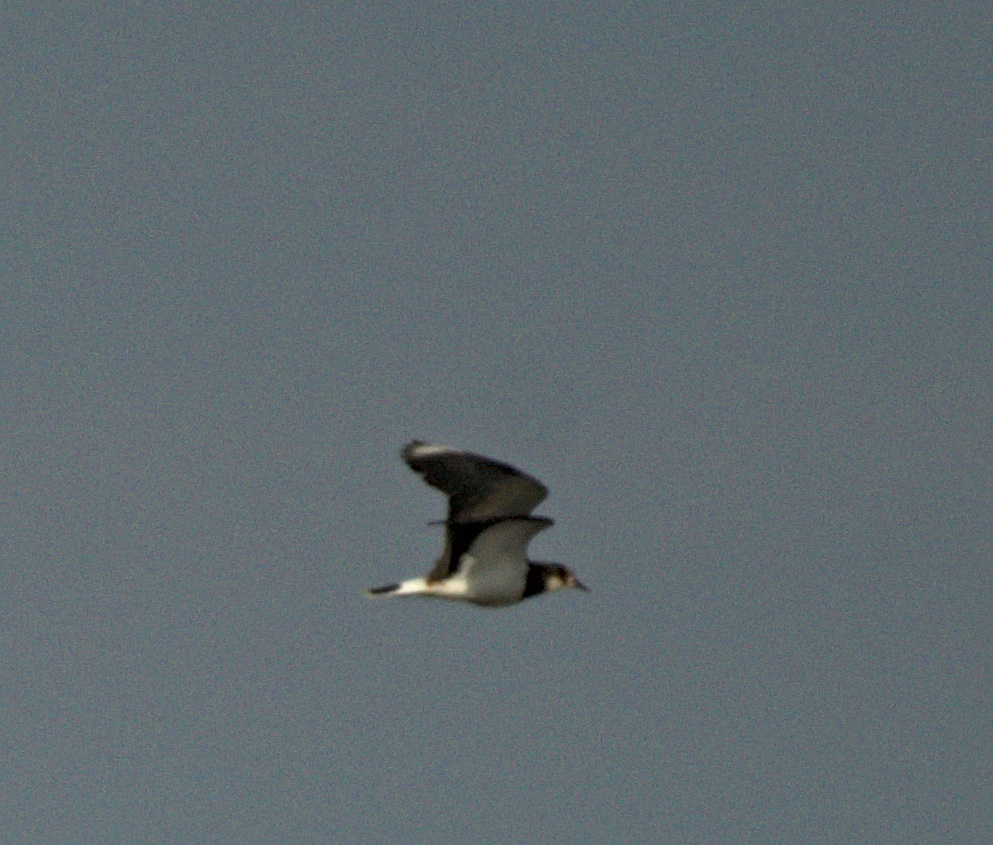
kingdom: Animalia
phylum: Chordata
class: Aves
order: Charadriiformes
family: Charadriidae
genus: Vanellus
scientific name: Vanellus vanellus
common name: Northern lapwing
